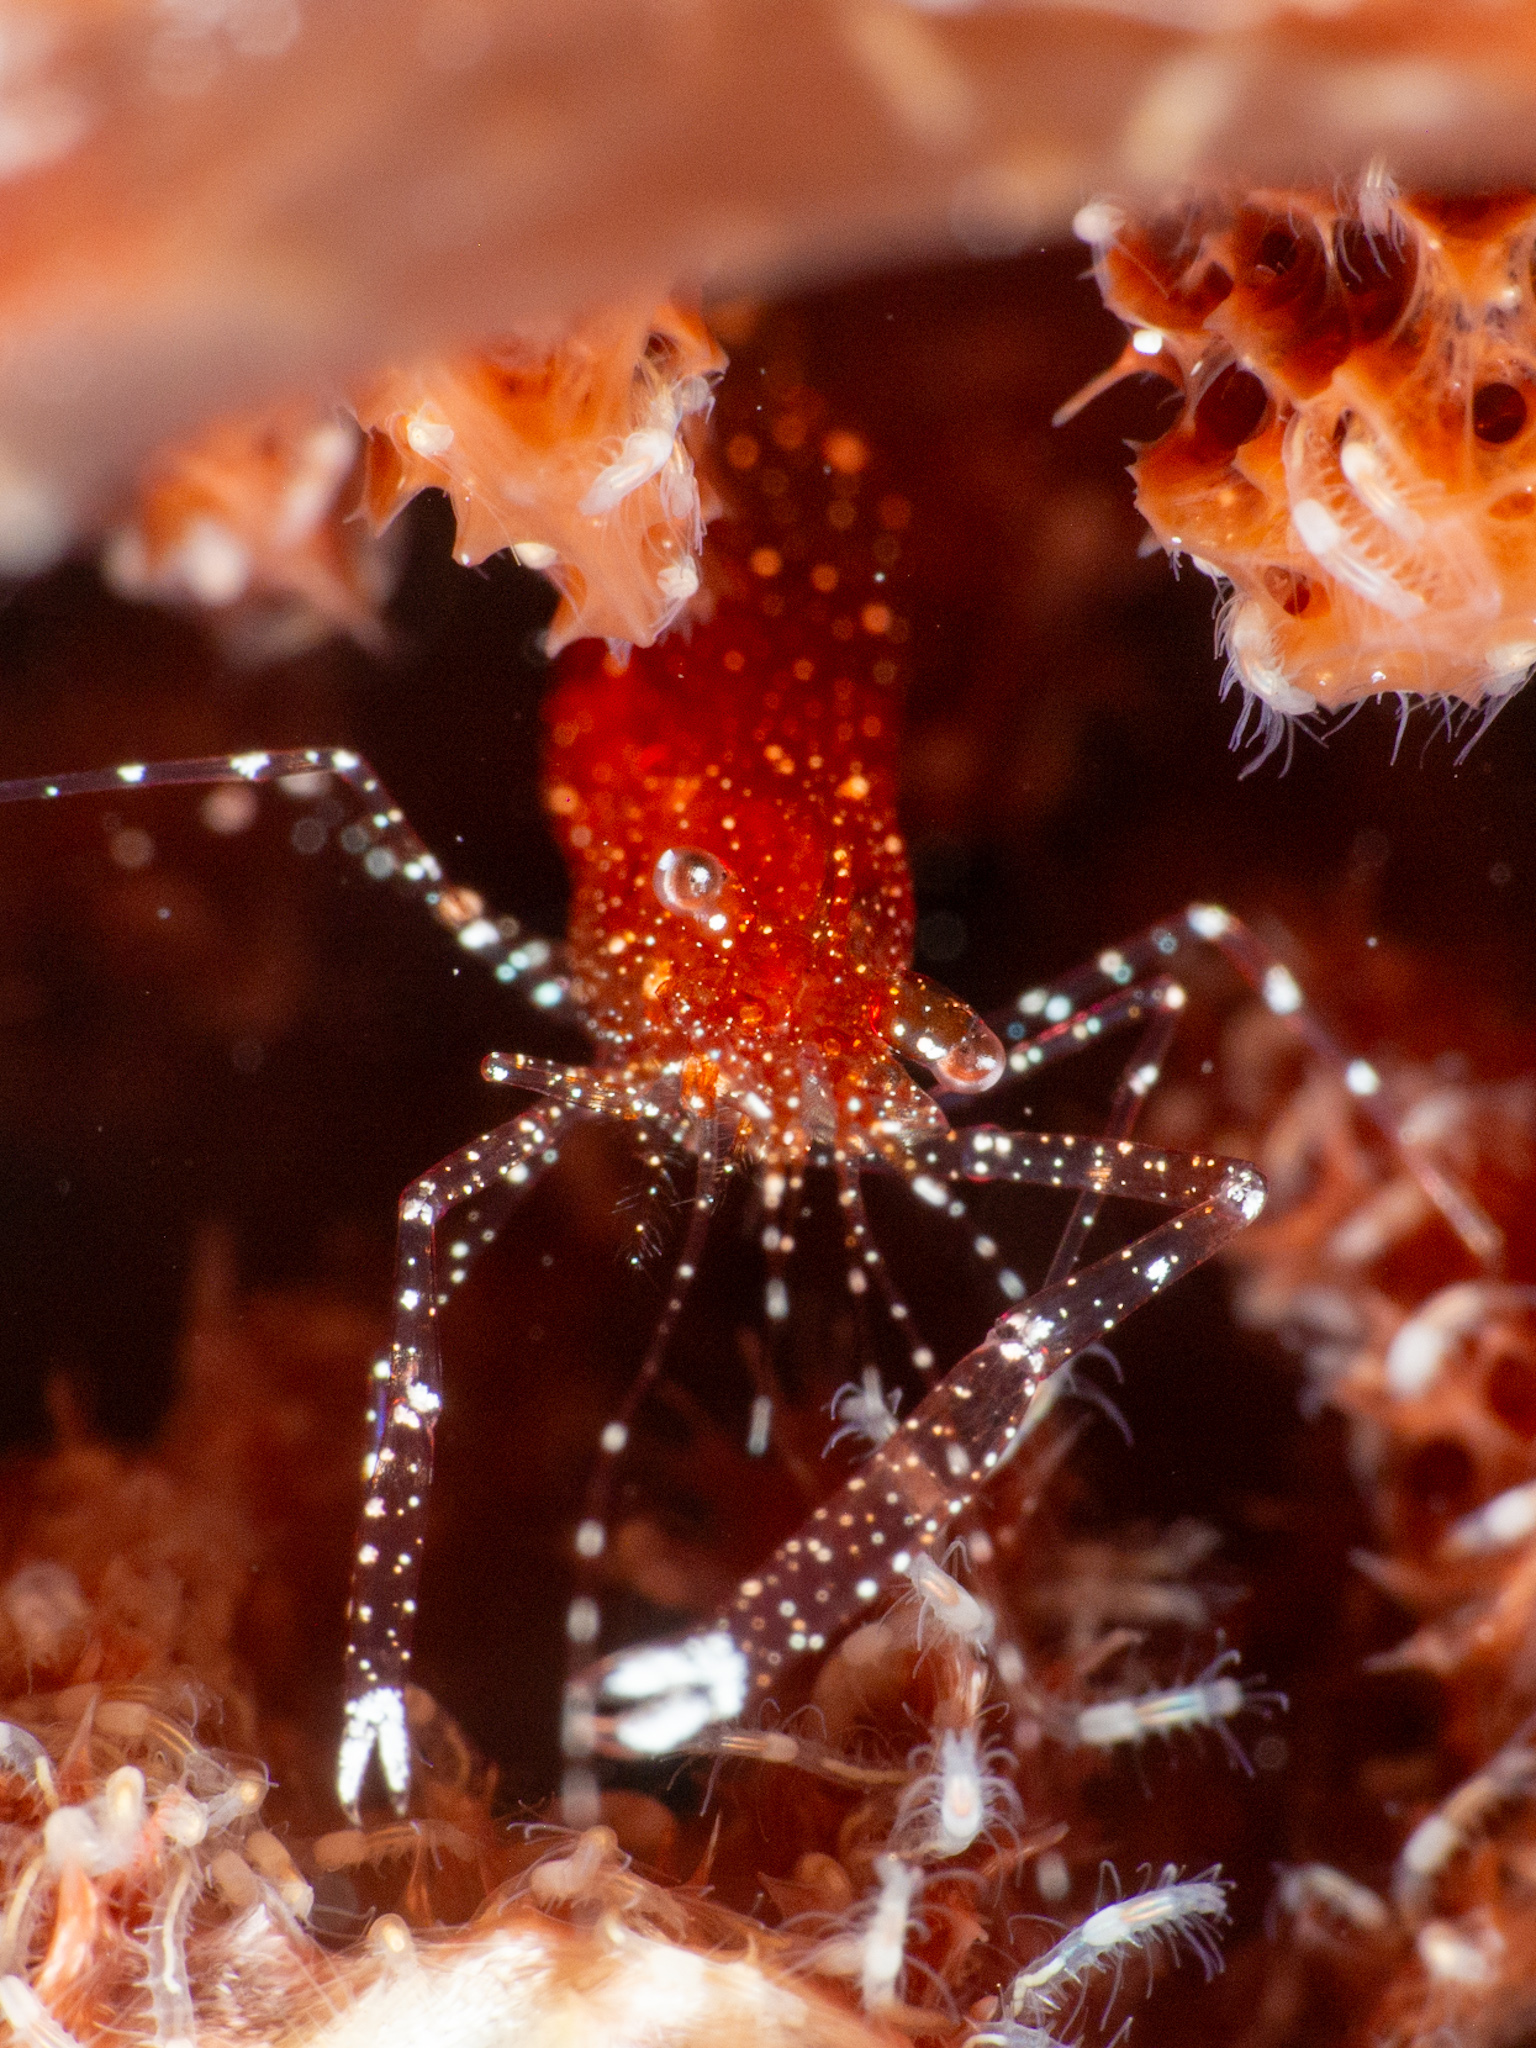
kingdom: Animalia
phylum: Arthropoda
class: Malacostraca
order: Decapoda
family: Palaemonidae
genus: Periclimenes
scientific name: Periclimenes harringtoni
